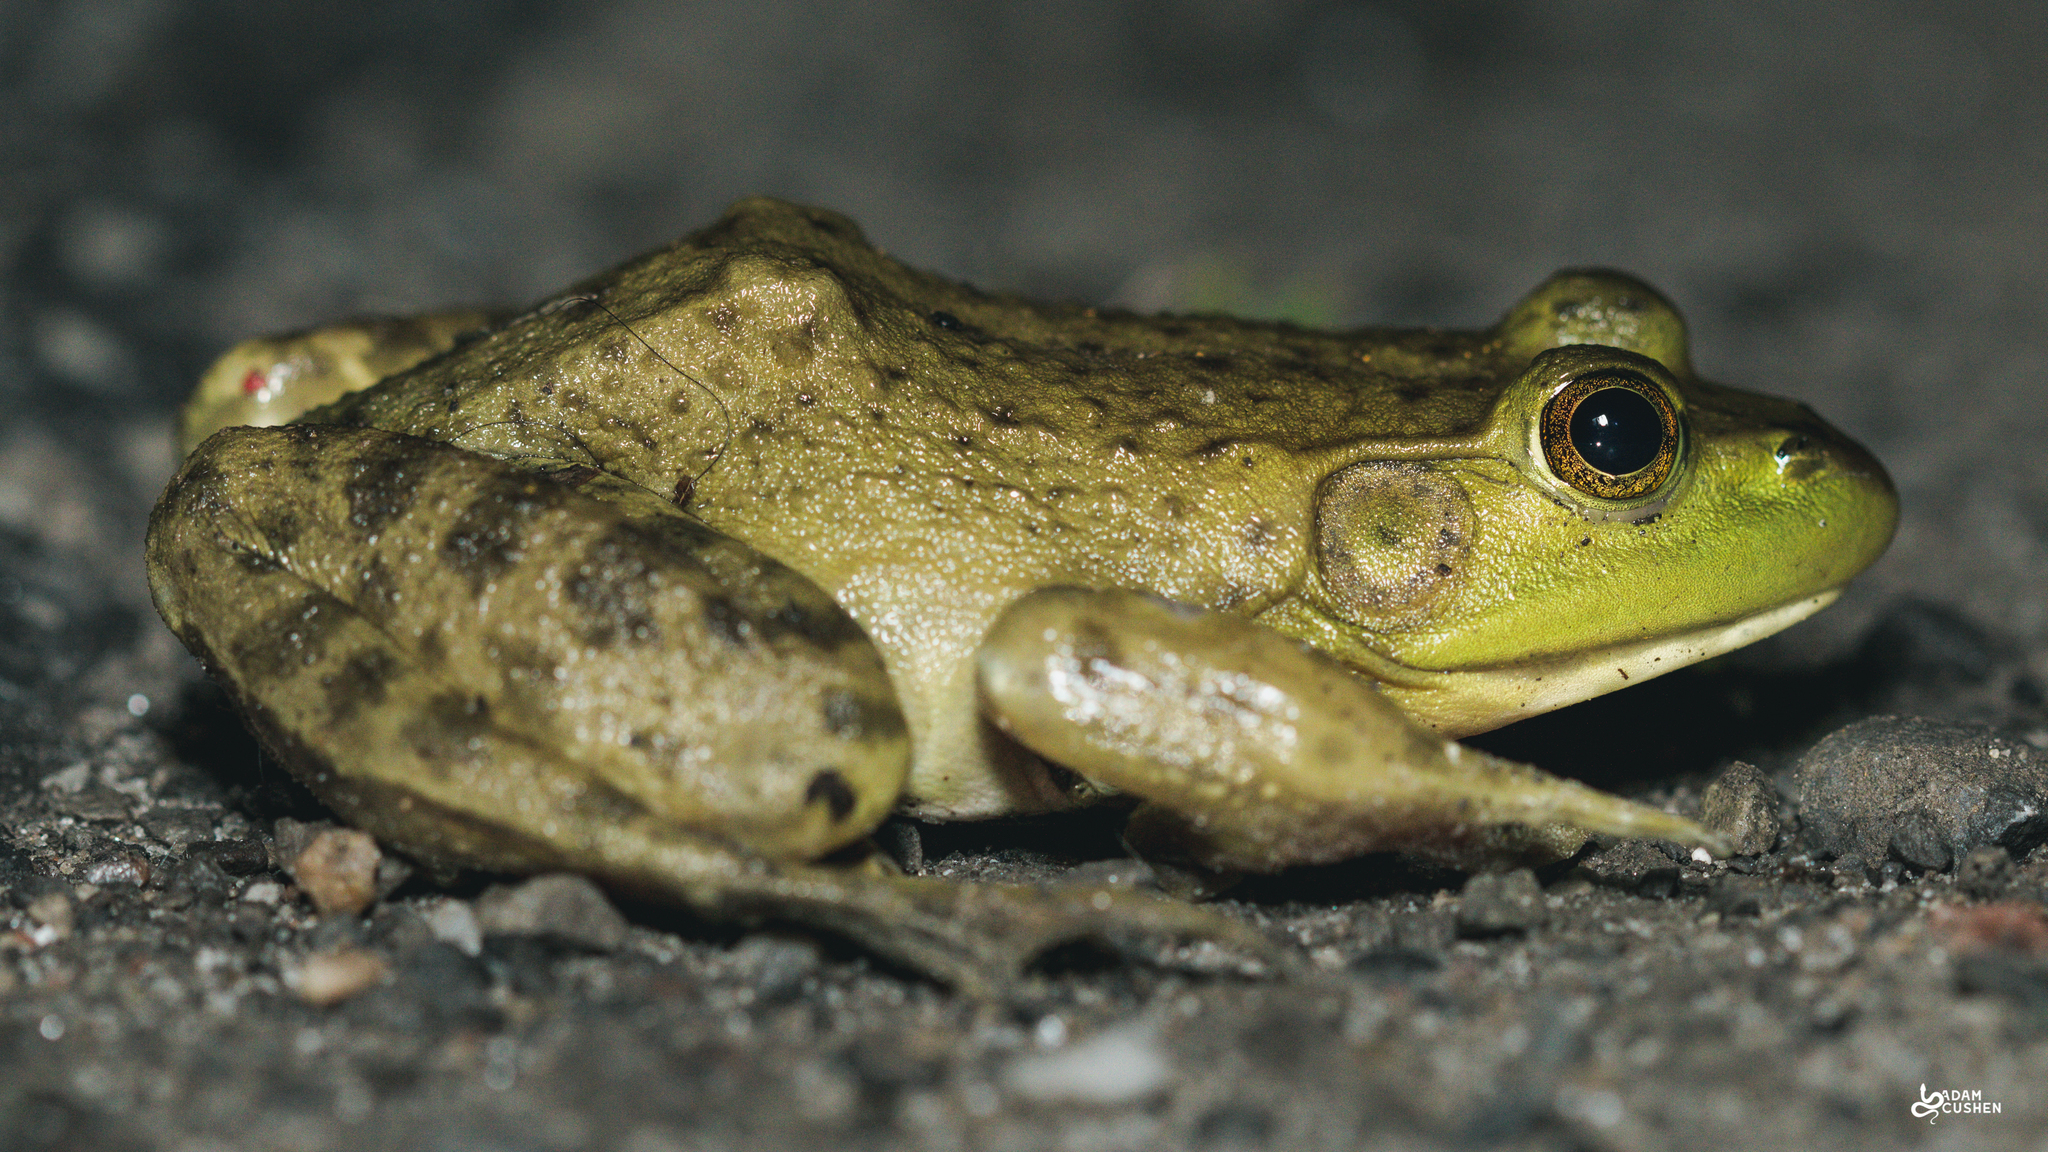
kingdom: Animalia
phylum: Chordata
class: Amphibia
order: Anura
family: Ranidae
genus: Lithobates
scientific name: Lithobates catesbeianus
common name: American bullfrog
